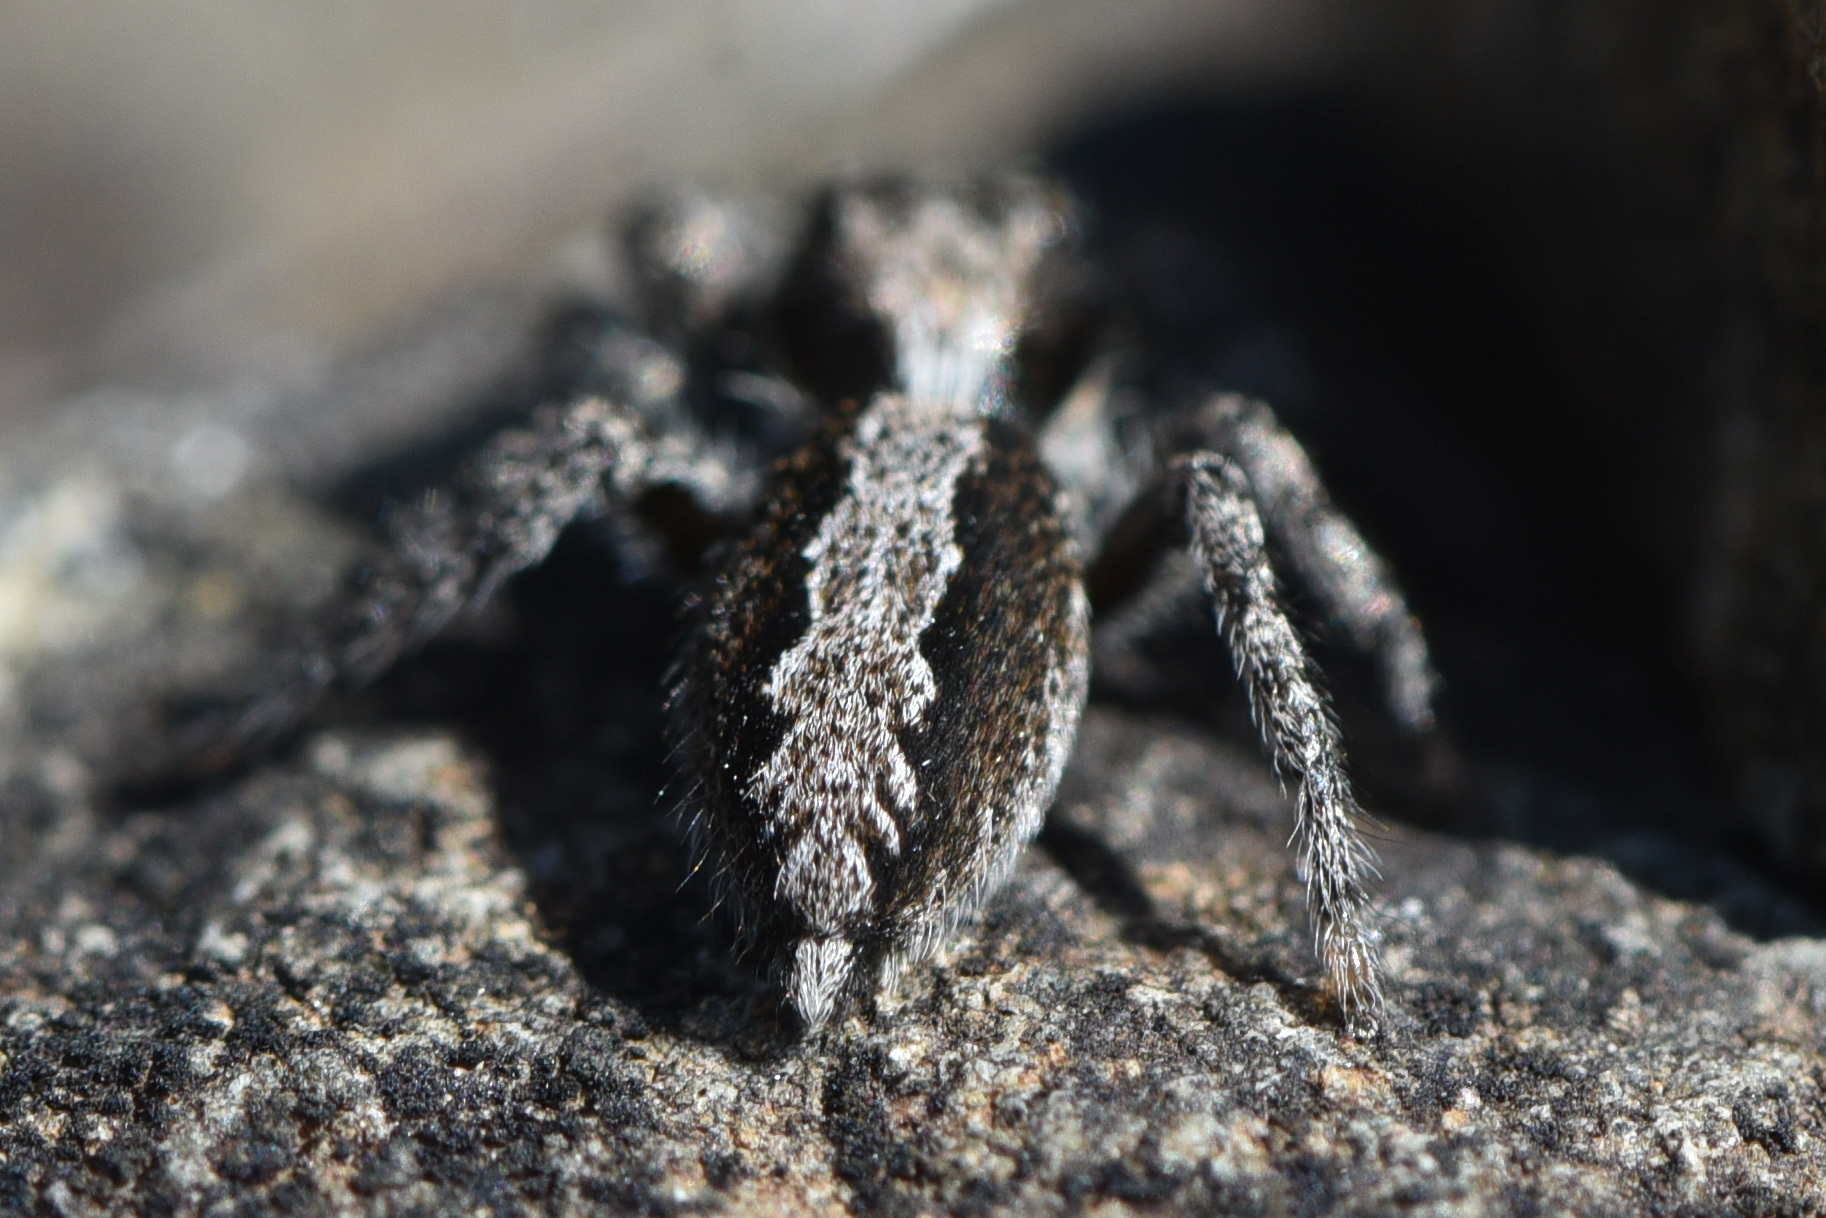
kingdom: Animalia
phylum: Arthropoda
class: Arachnida
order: Araneae
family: Salticidae
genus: Platycryptus
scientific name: Platycryptus californicus
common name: Jumping spiders
